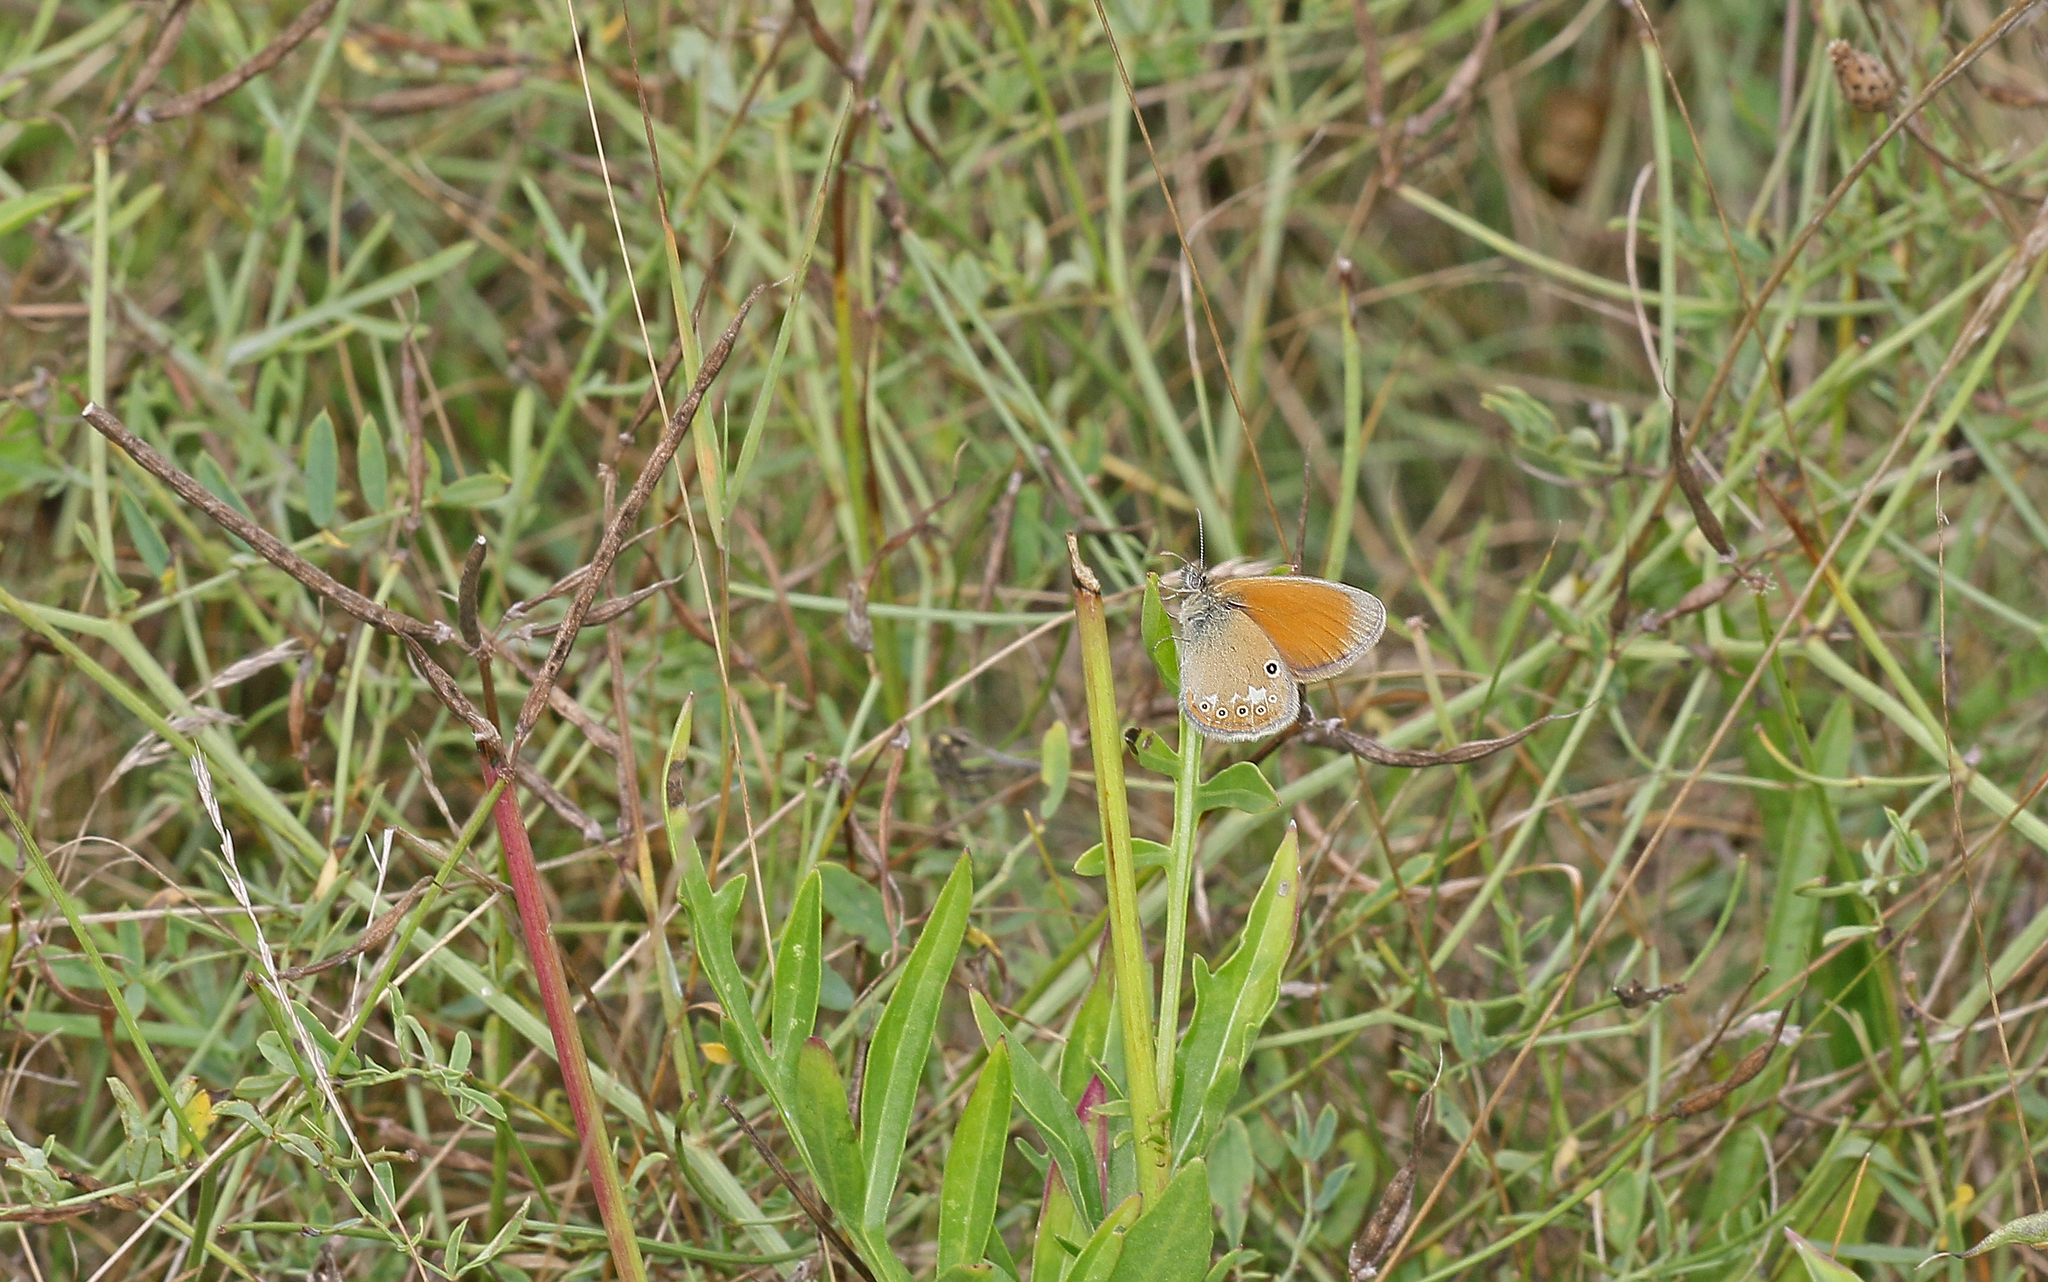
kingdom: Animalia
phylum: Arthropoda
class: Insecta
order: Lepidoptera
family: Nymphalidae
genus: Coenonympha
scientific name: Coenonympha iphis
